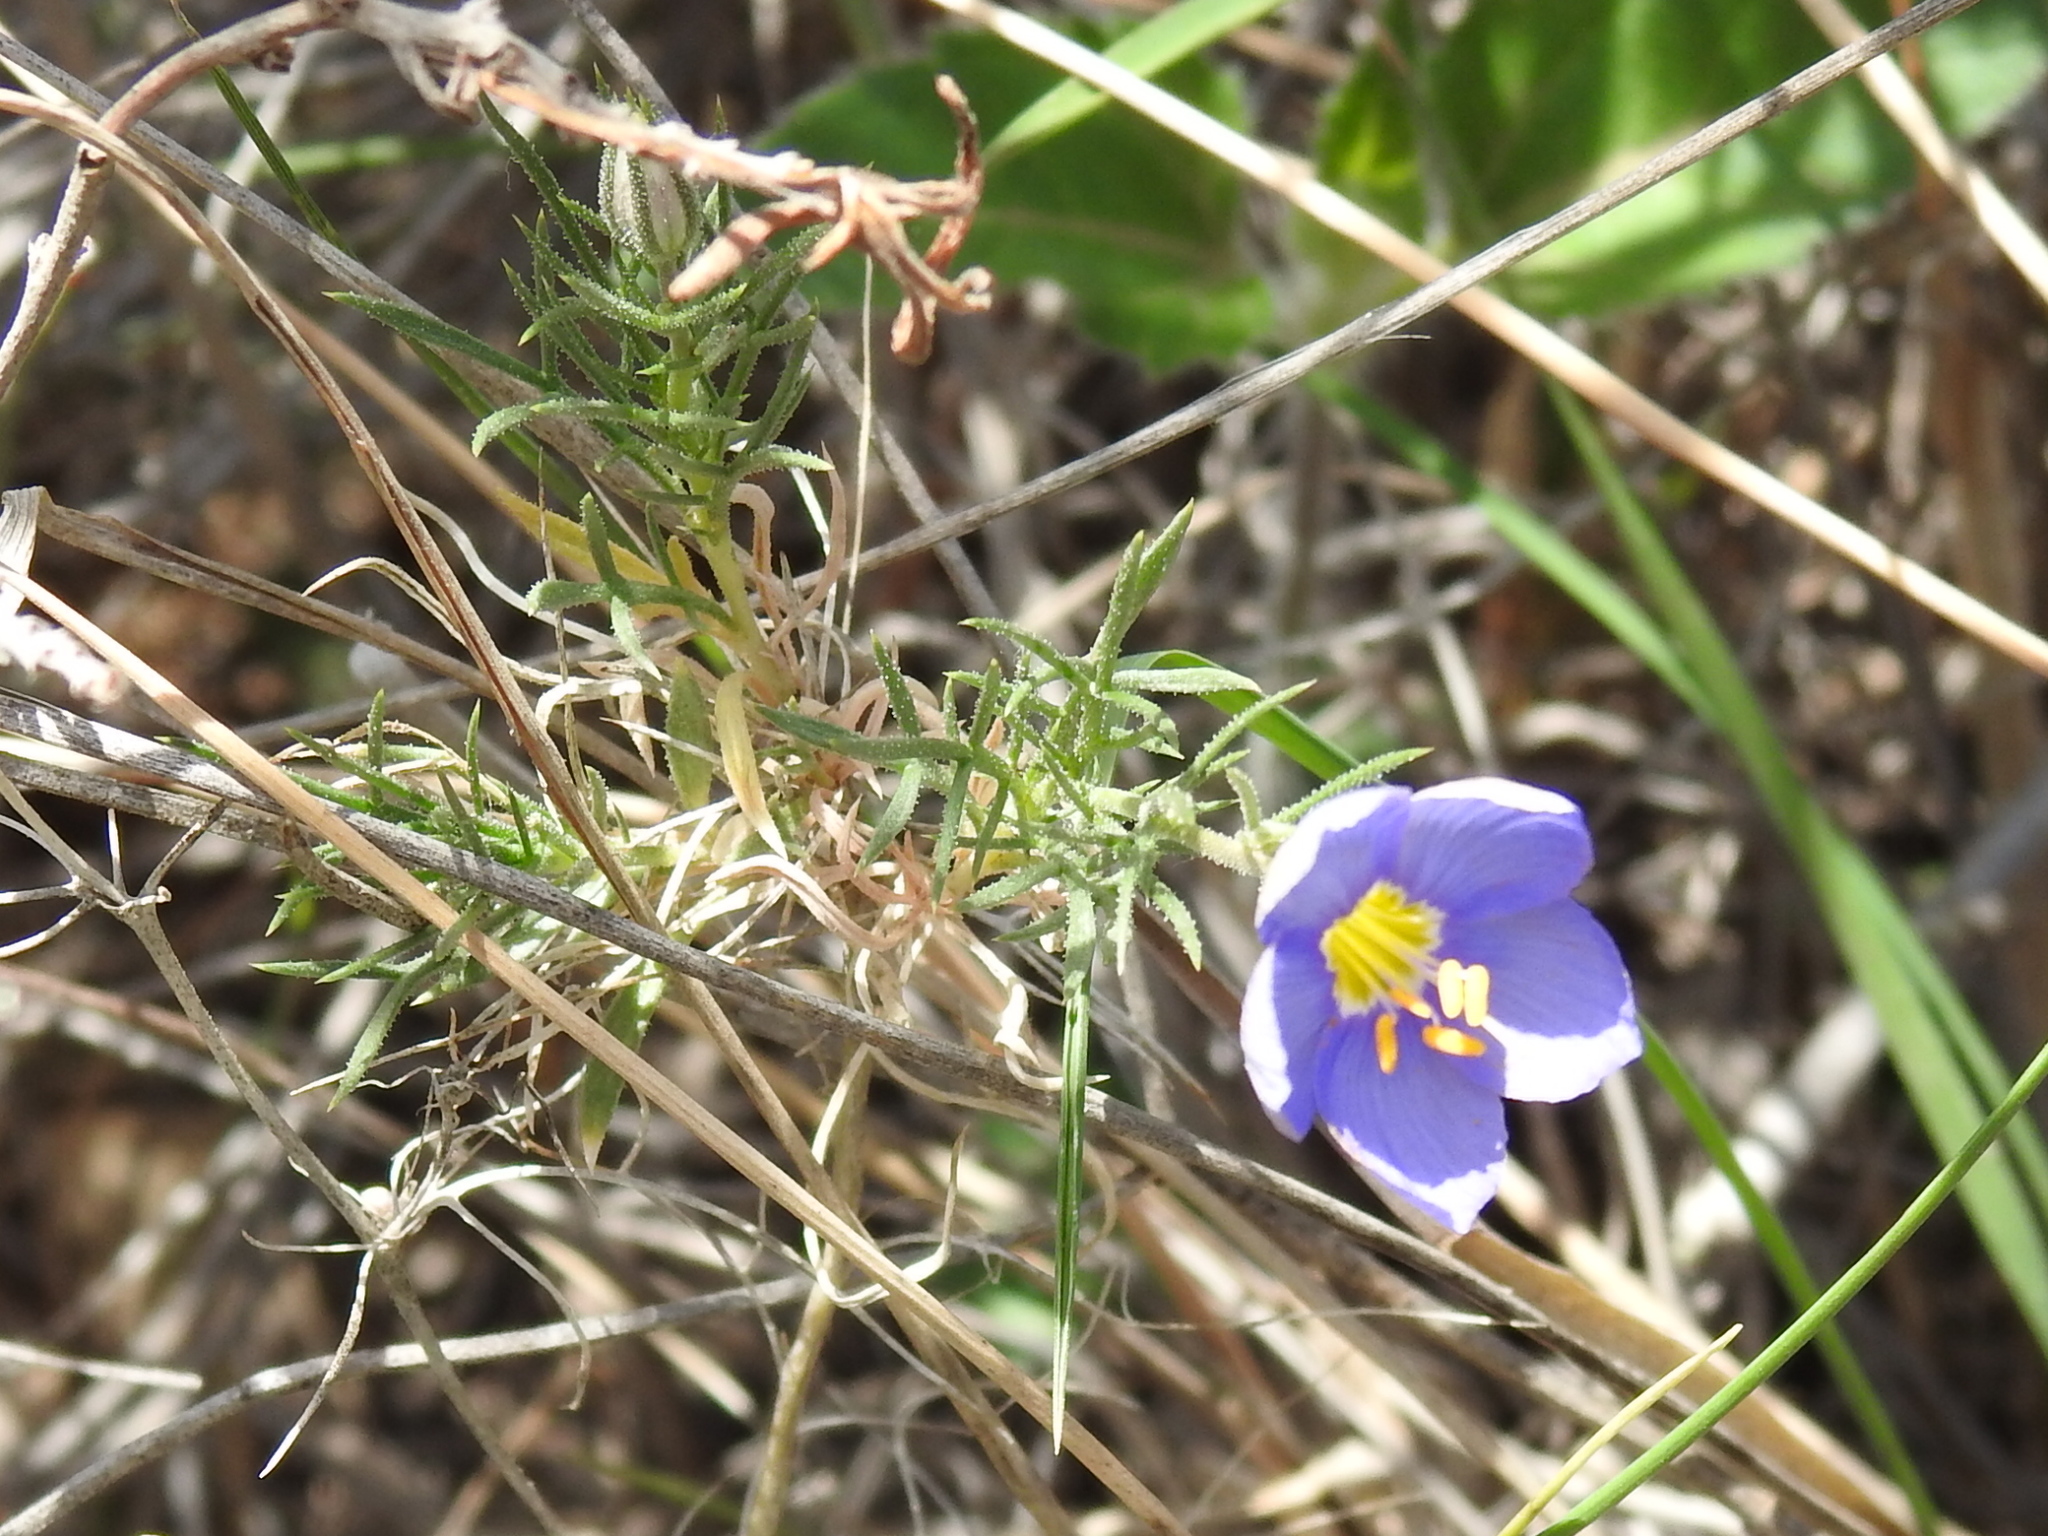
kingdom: Plantae
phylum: Tracheophyta
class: Magnoliopsida
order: Ericales
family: Polemoniaceae
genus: Giliastrum
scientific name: Giliastrum acerosum
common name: Bluebowls
